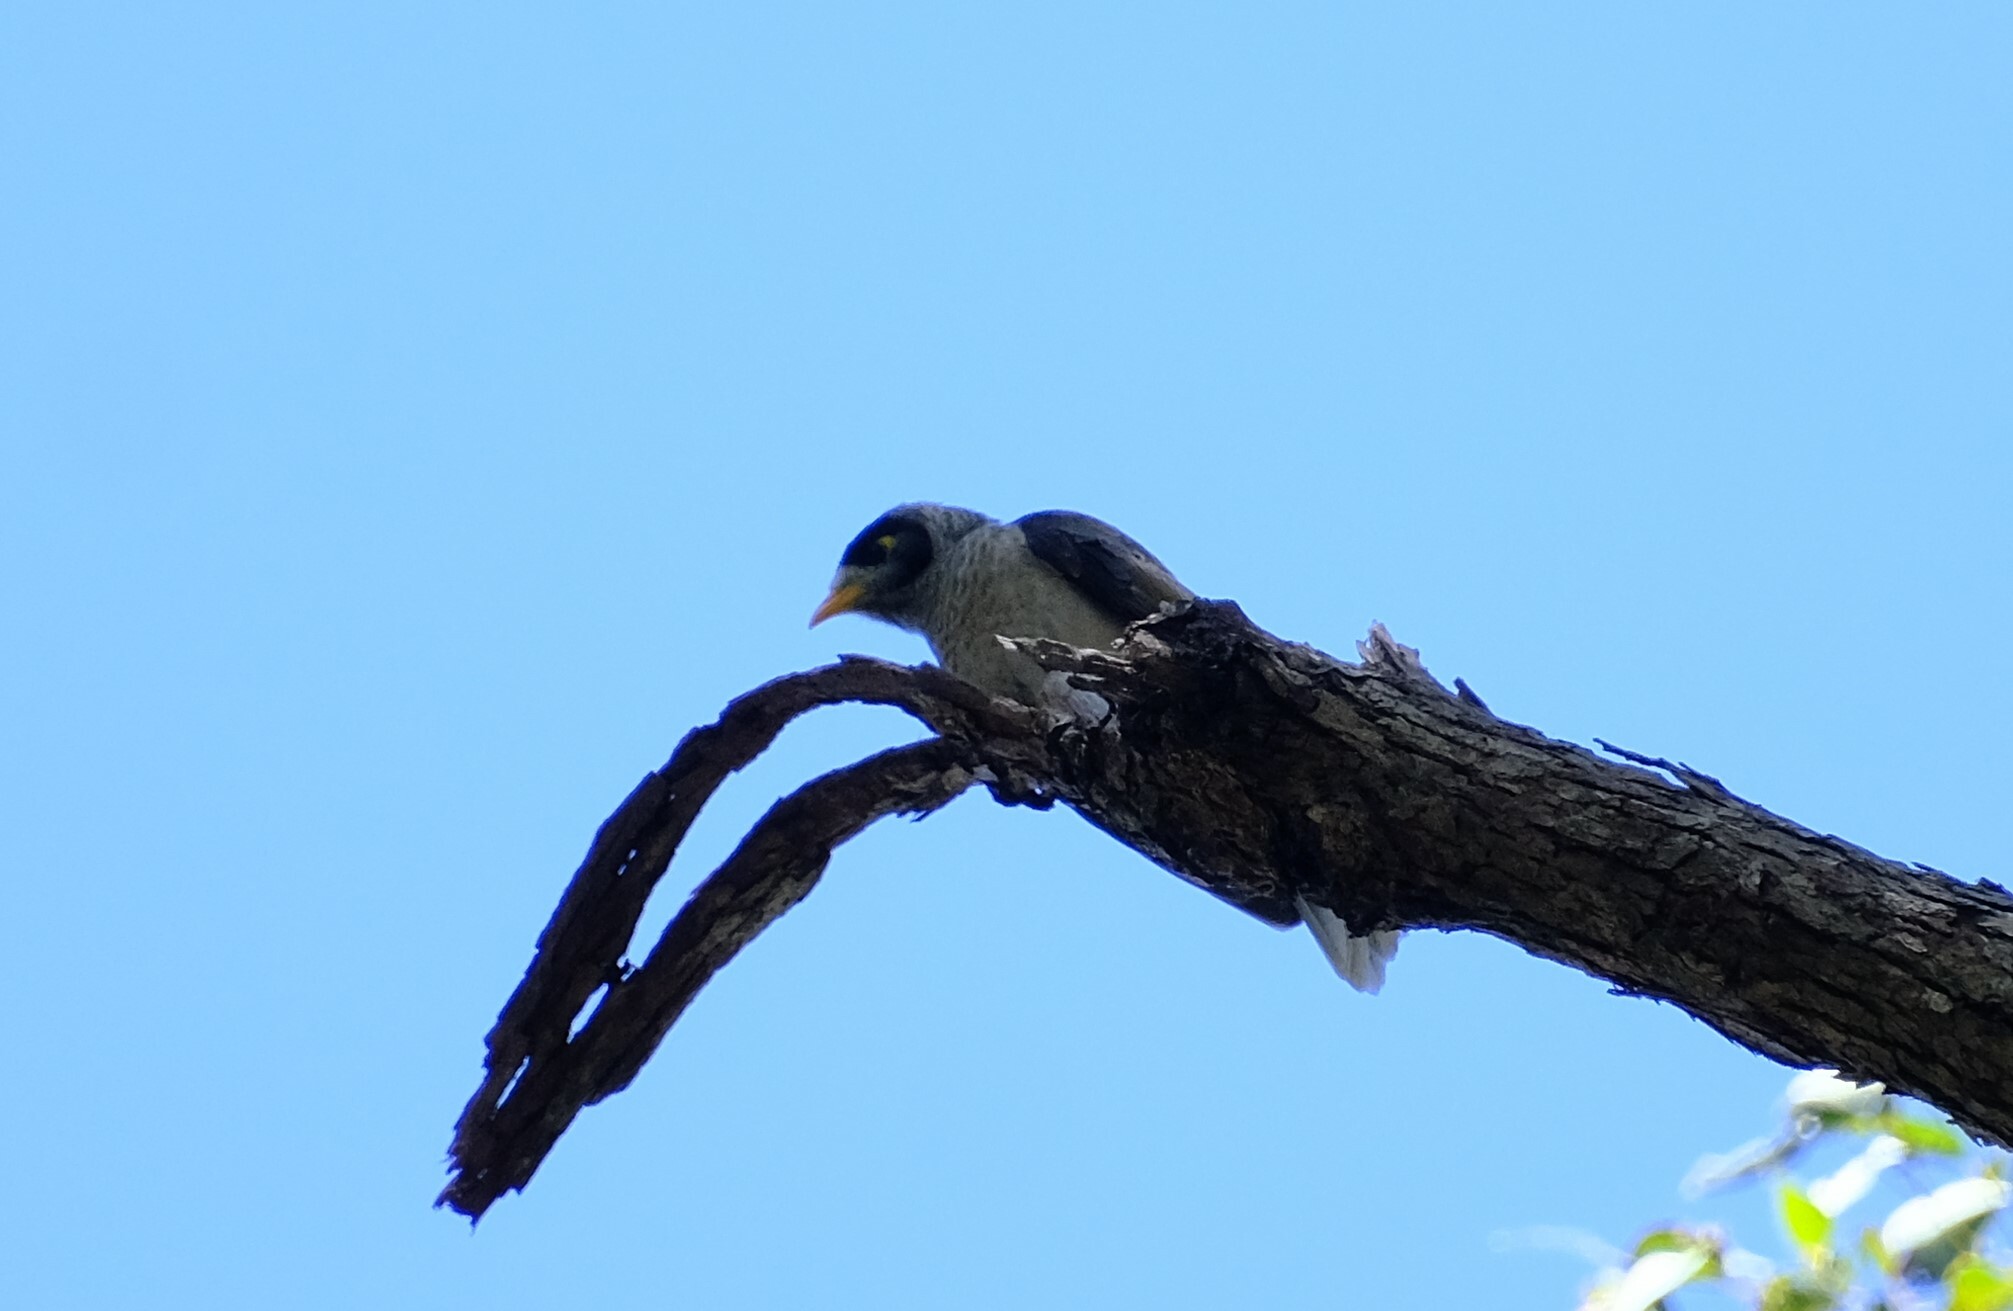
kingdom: Animalia
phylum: Chordata
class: Aves
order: Passeriformes
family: Meliphagidae
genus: Manorina
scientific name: Manorina melanocephala
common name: Noisy miner
